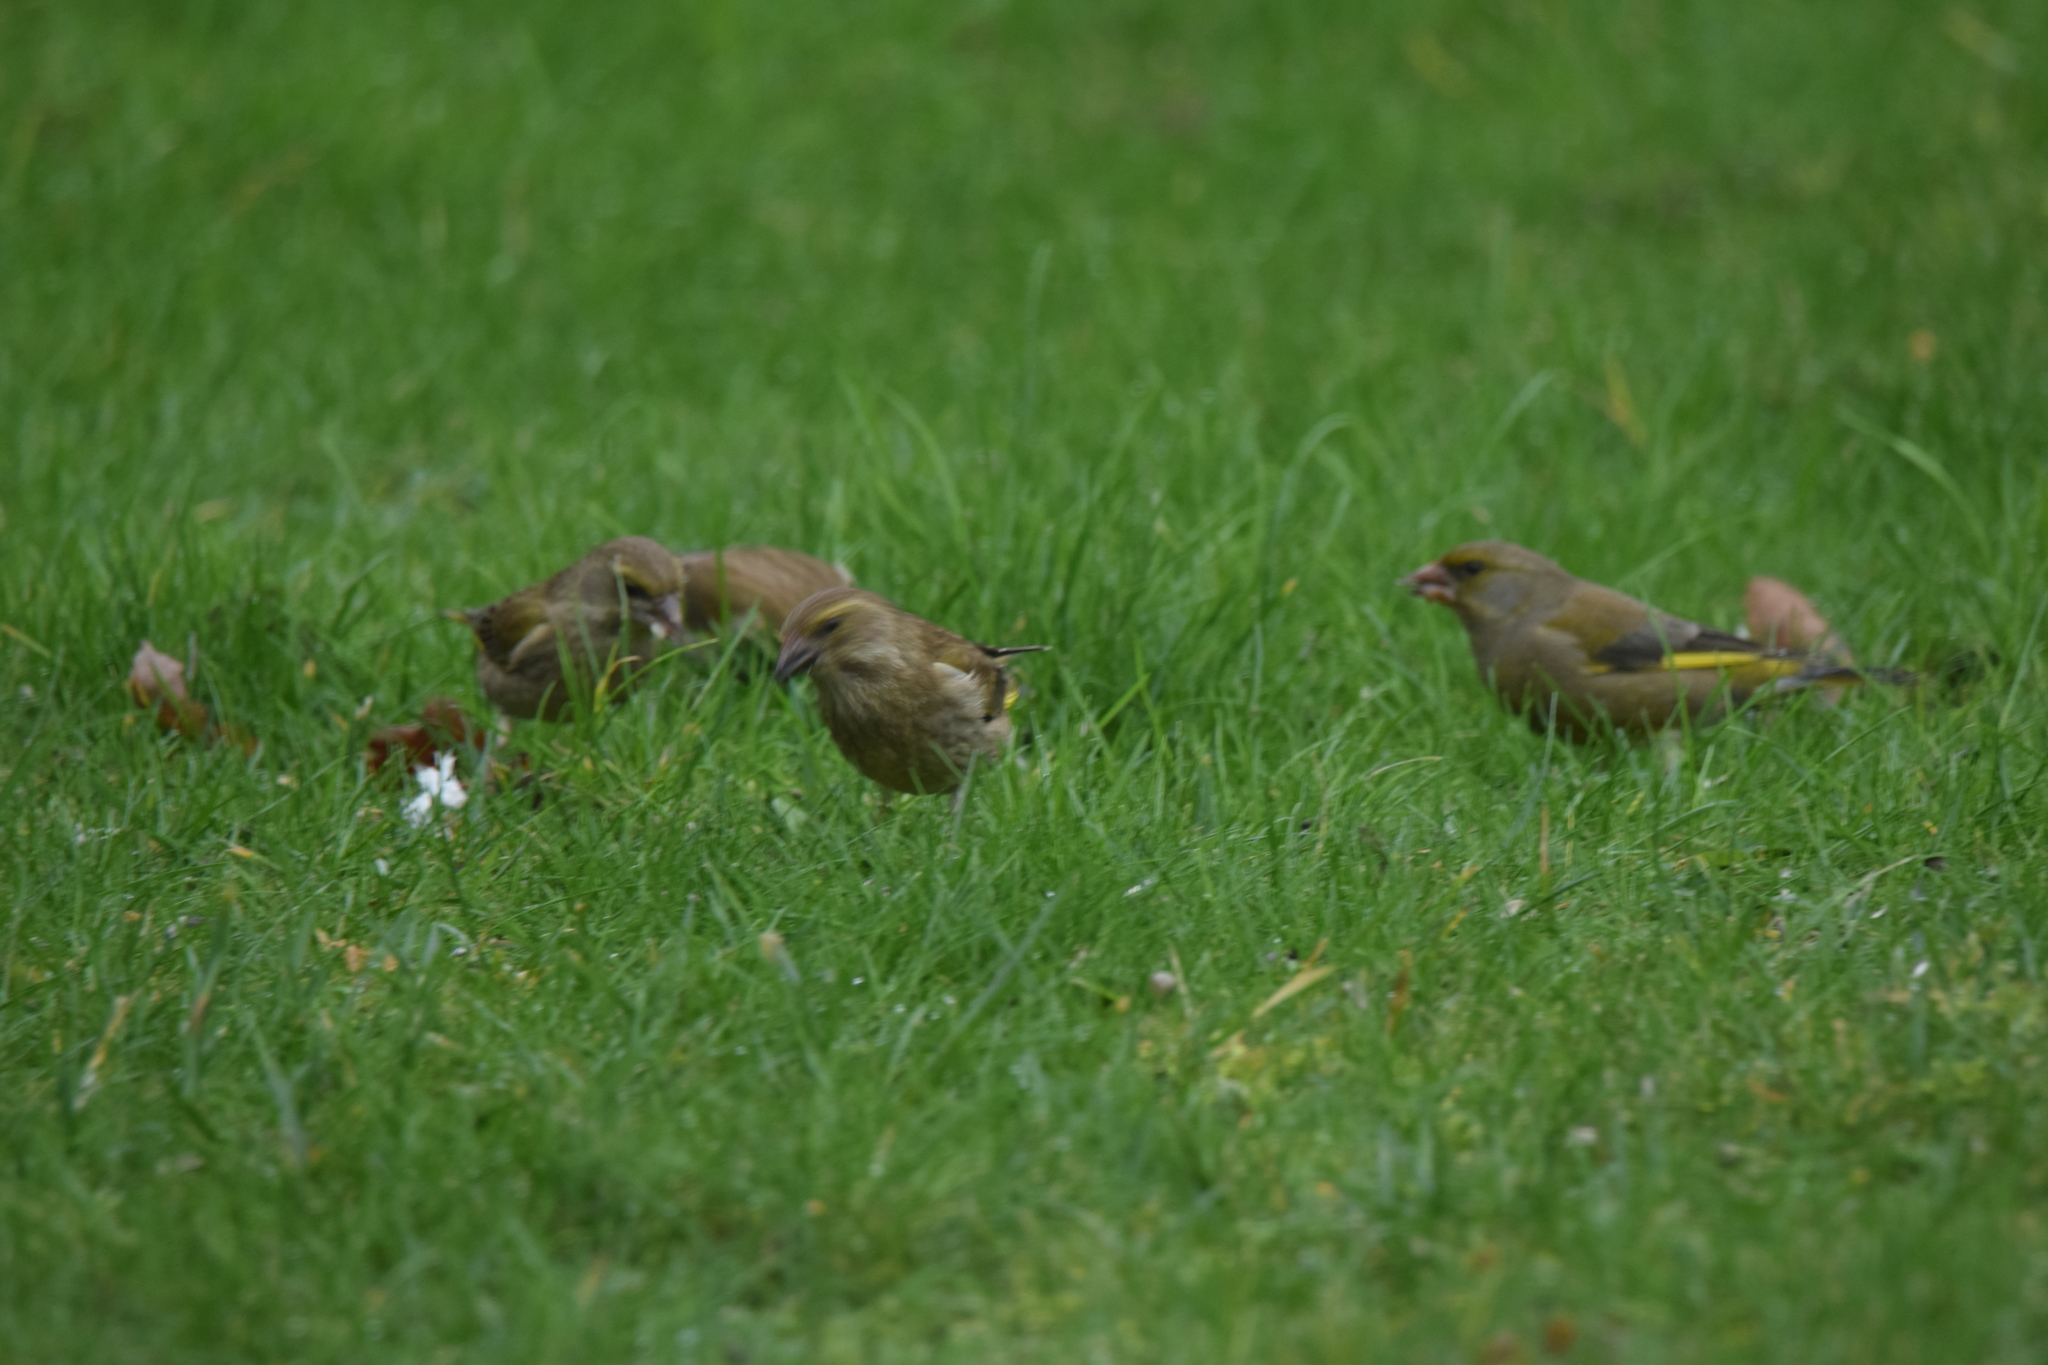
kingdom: Plantae
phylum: Tracheophyta
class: Liliopsida
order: Poales
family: Poaceae
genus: Chloris
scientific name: Chloris chloris
